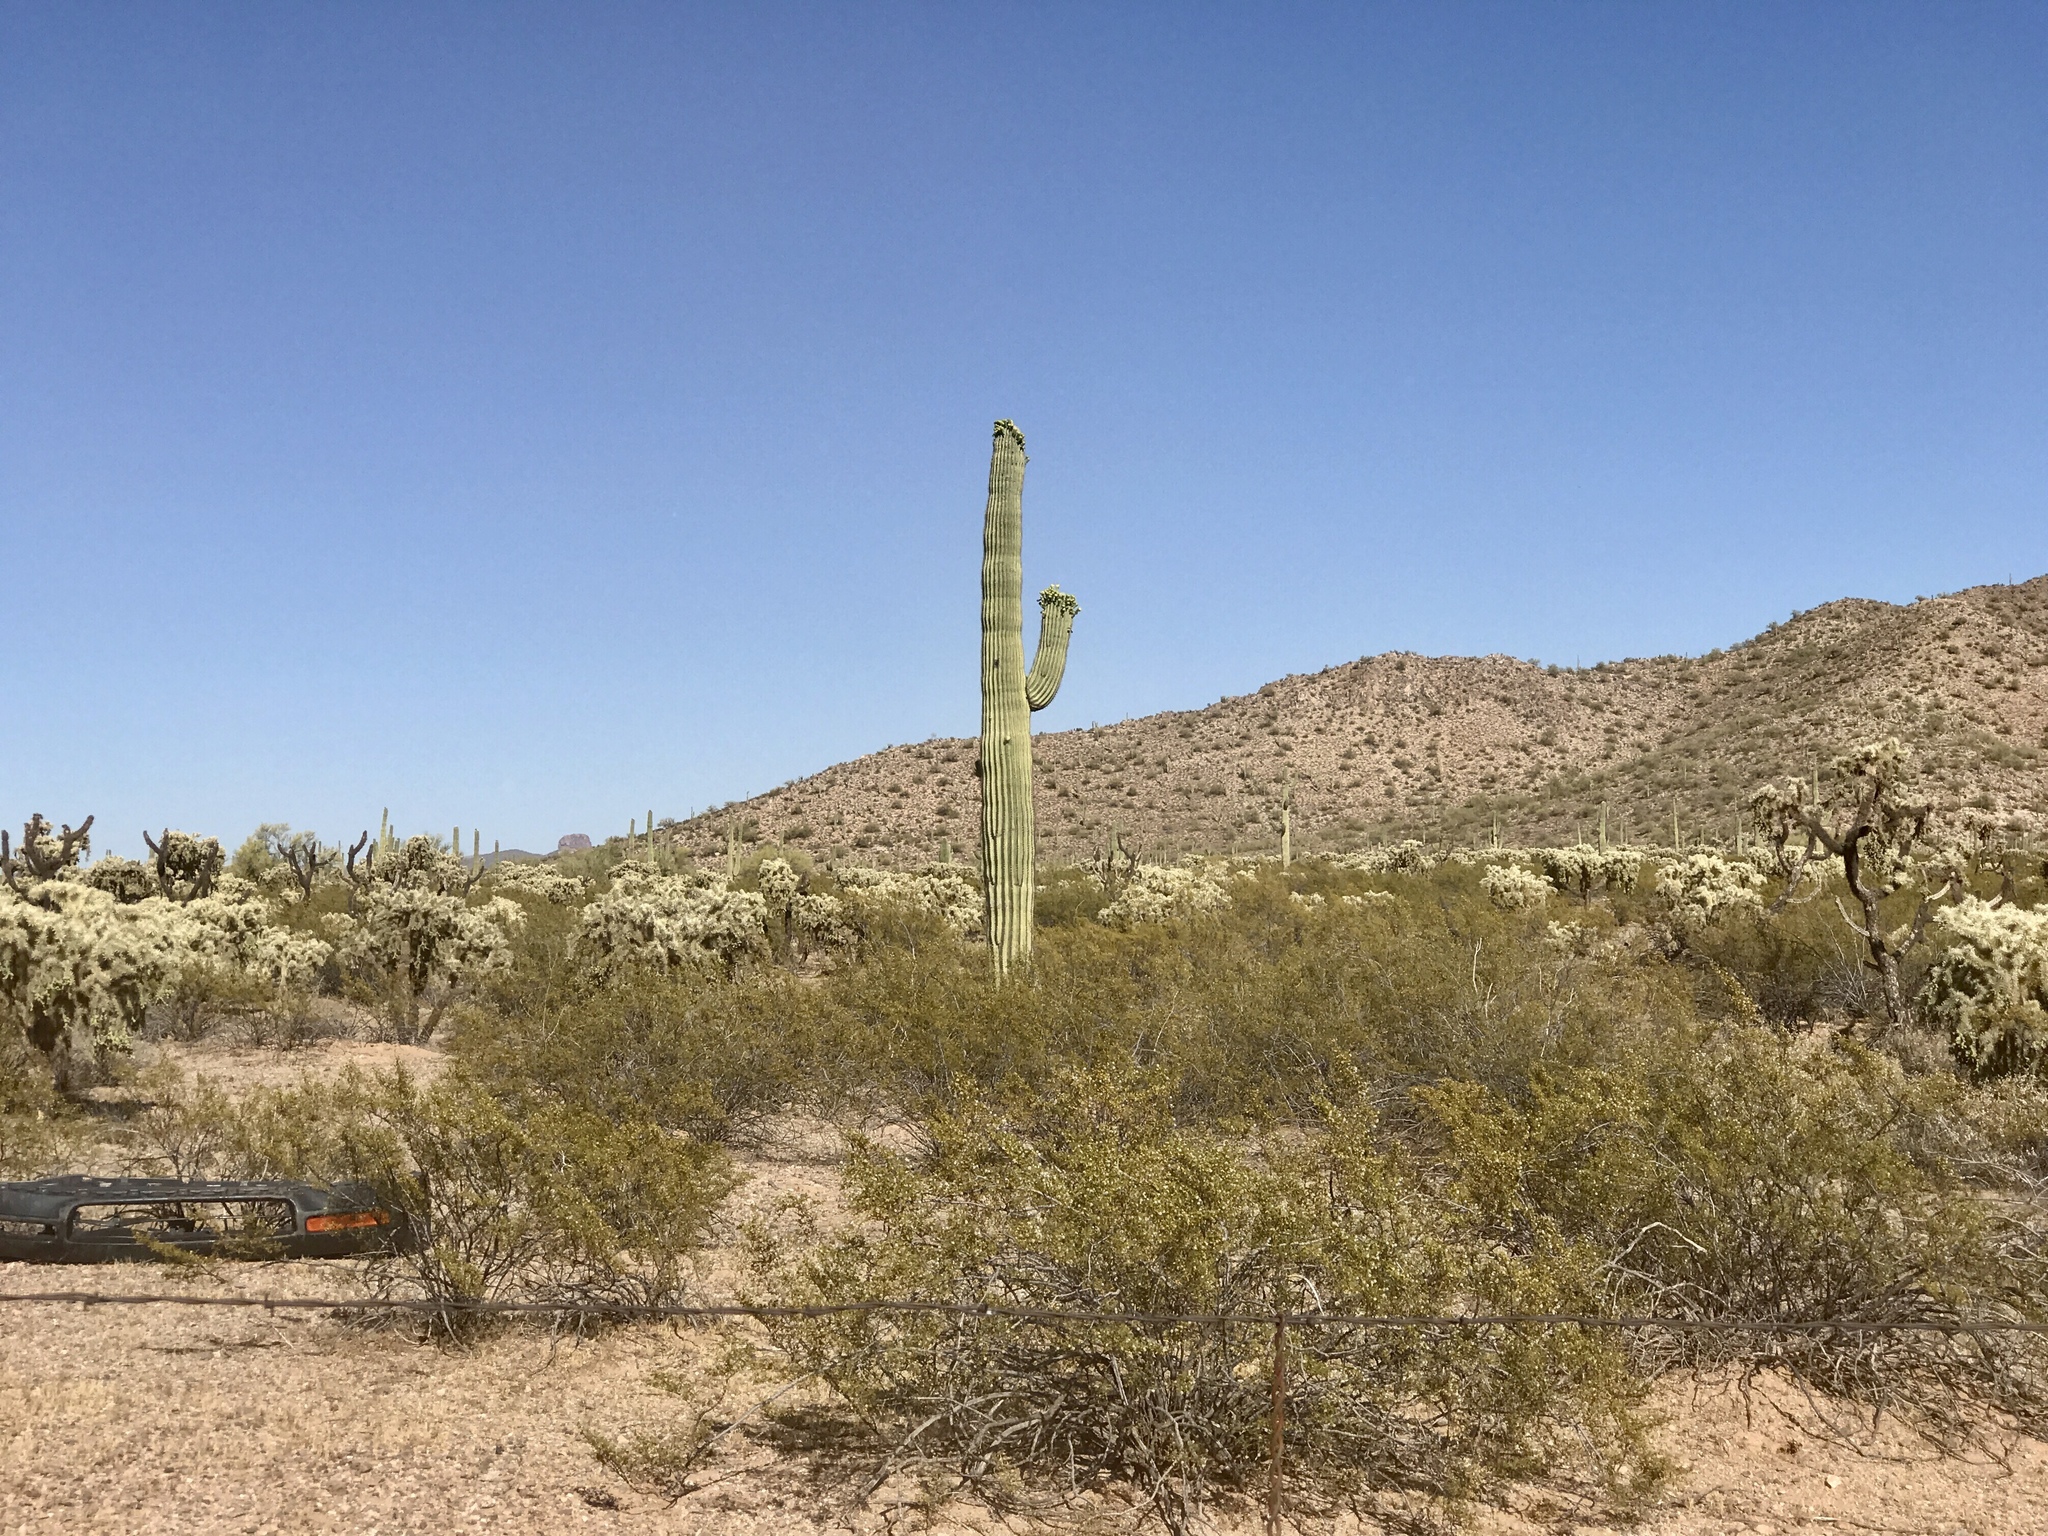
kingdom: Plantae
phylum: Tracheophyta
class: Magnoliopsida
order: Zygophyllales
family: Zygophyllaceae
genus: Larrea
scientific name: Larrea tridentata
